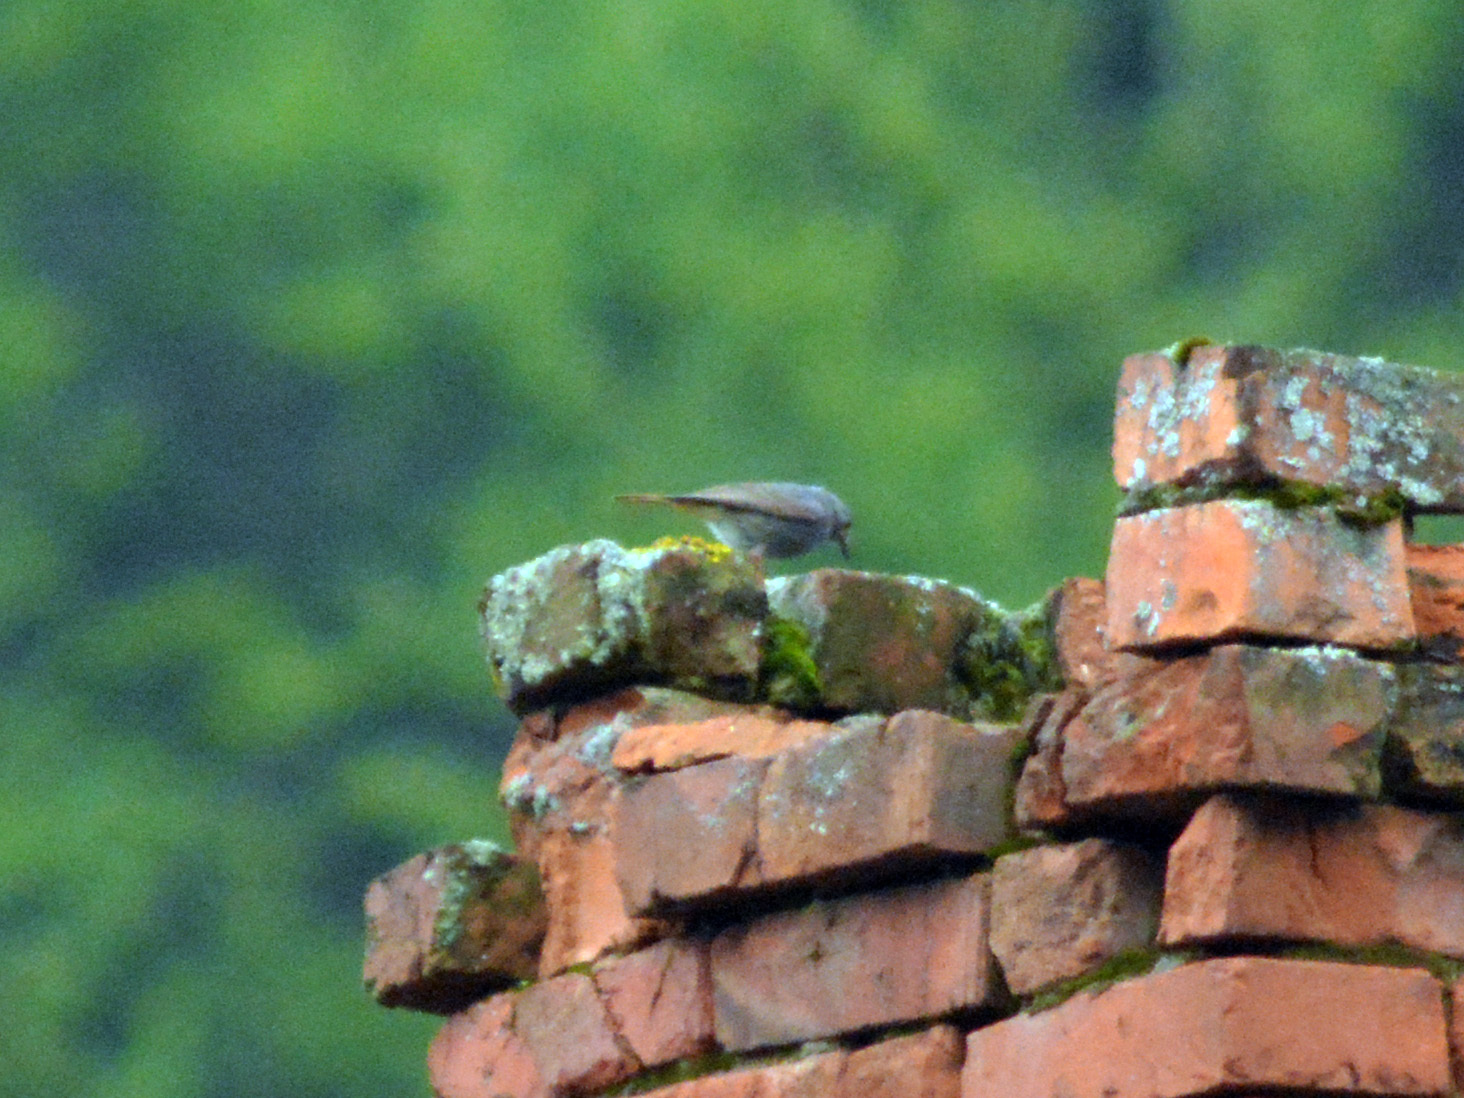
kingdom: Animalia
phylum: Chordata
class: Aves
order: Passeriformes
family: Muscicapidae
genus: Phoenicurus
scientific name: Phoenicurus ochruros
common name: Black redstart
